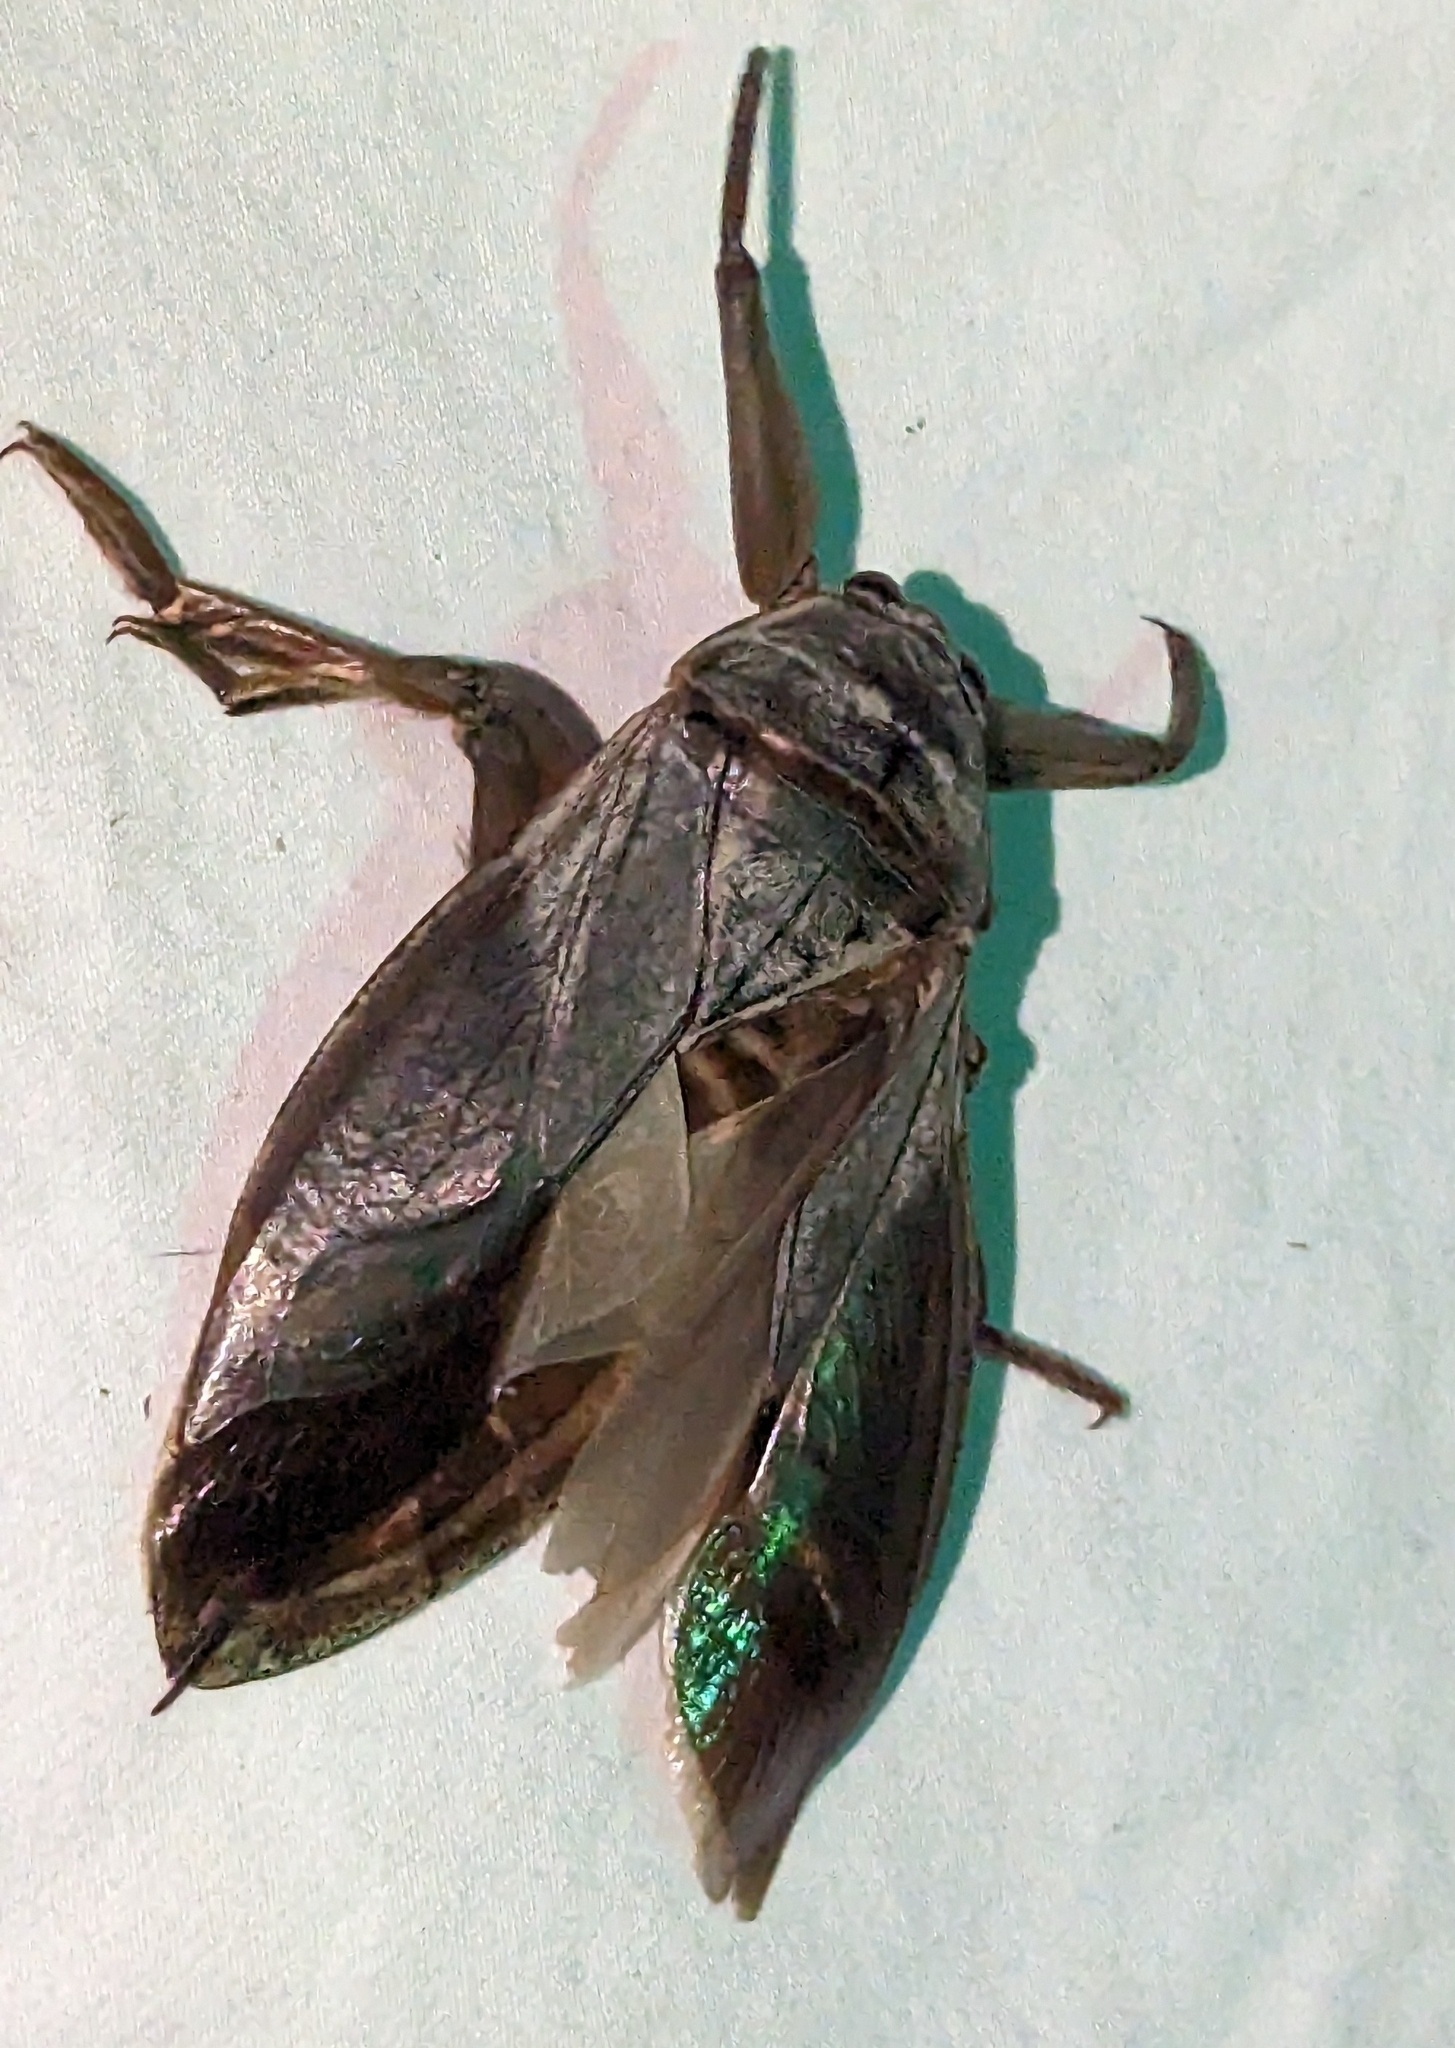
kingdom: Animalia
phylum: Arthropoda
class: Insecta
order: Hemiptera
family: Belostomatidae
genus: Lethocerus
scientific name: Lethocerus americanus
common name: Giant water bug
